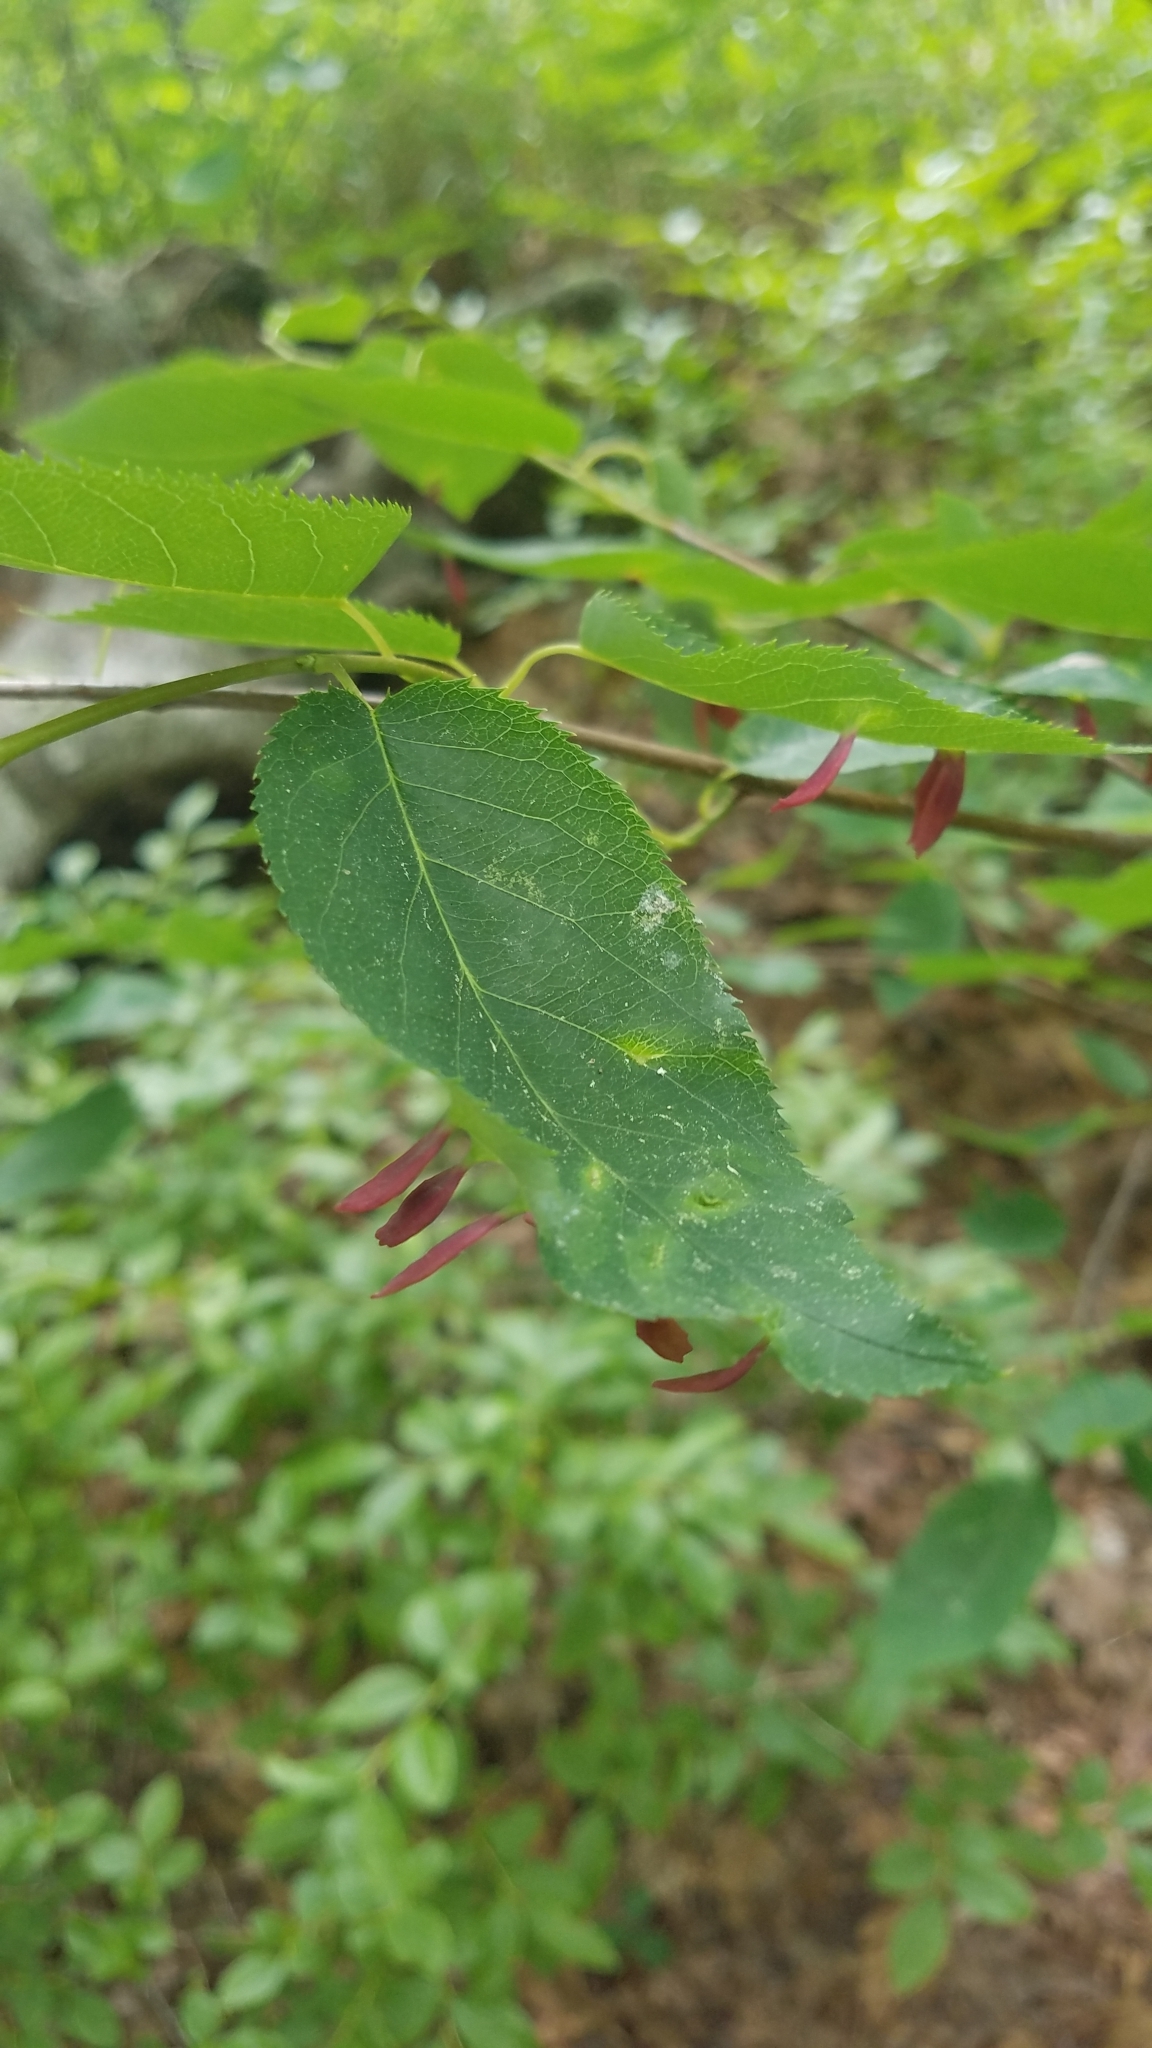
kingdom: Animalia
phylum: Arthropoda
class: Arachnida
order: Trombidiformes
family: Eriophyidae
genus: Eriophyes
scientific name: Eriophyes
